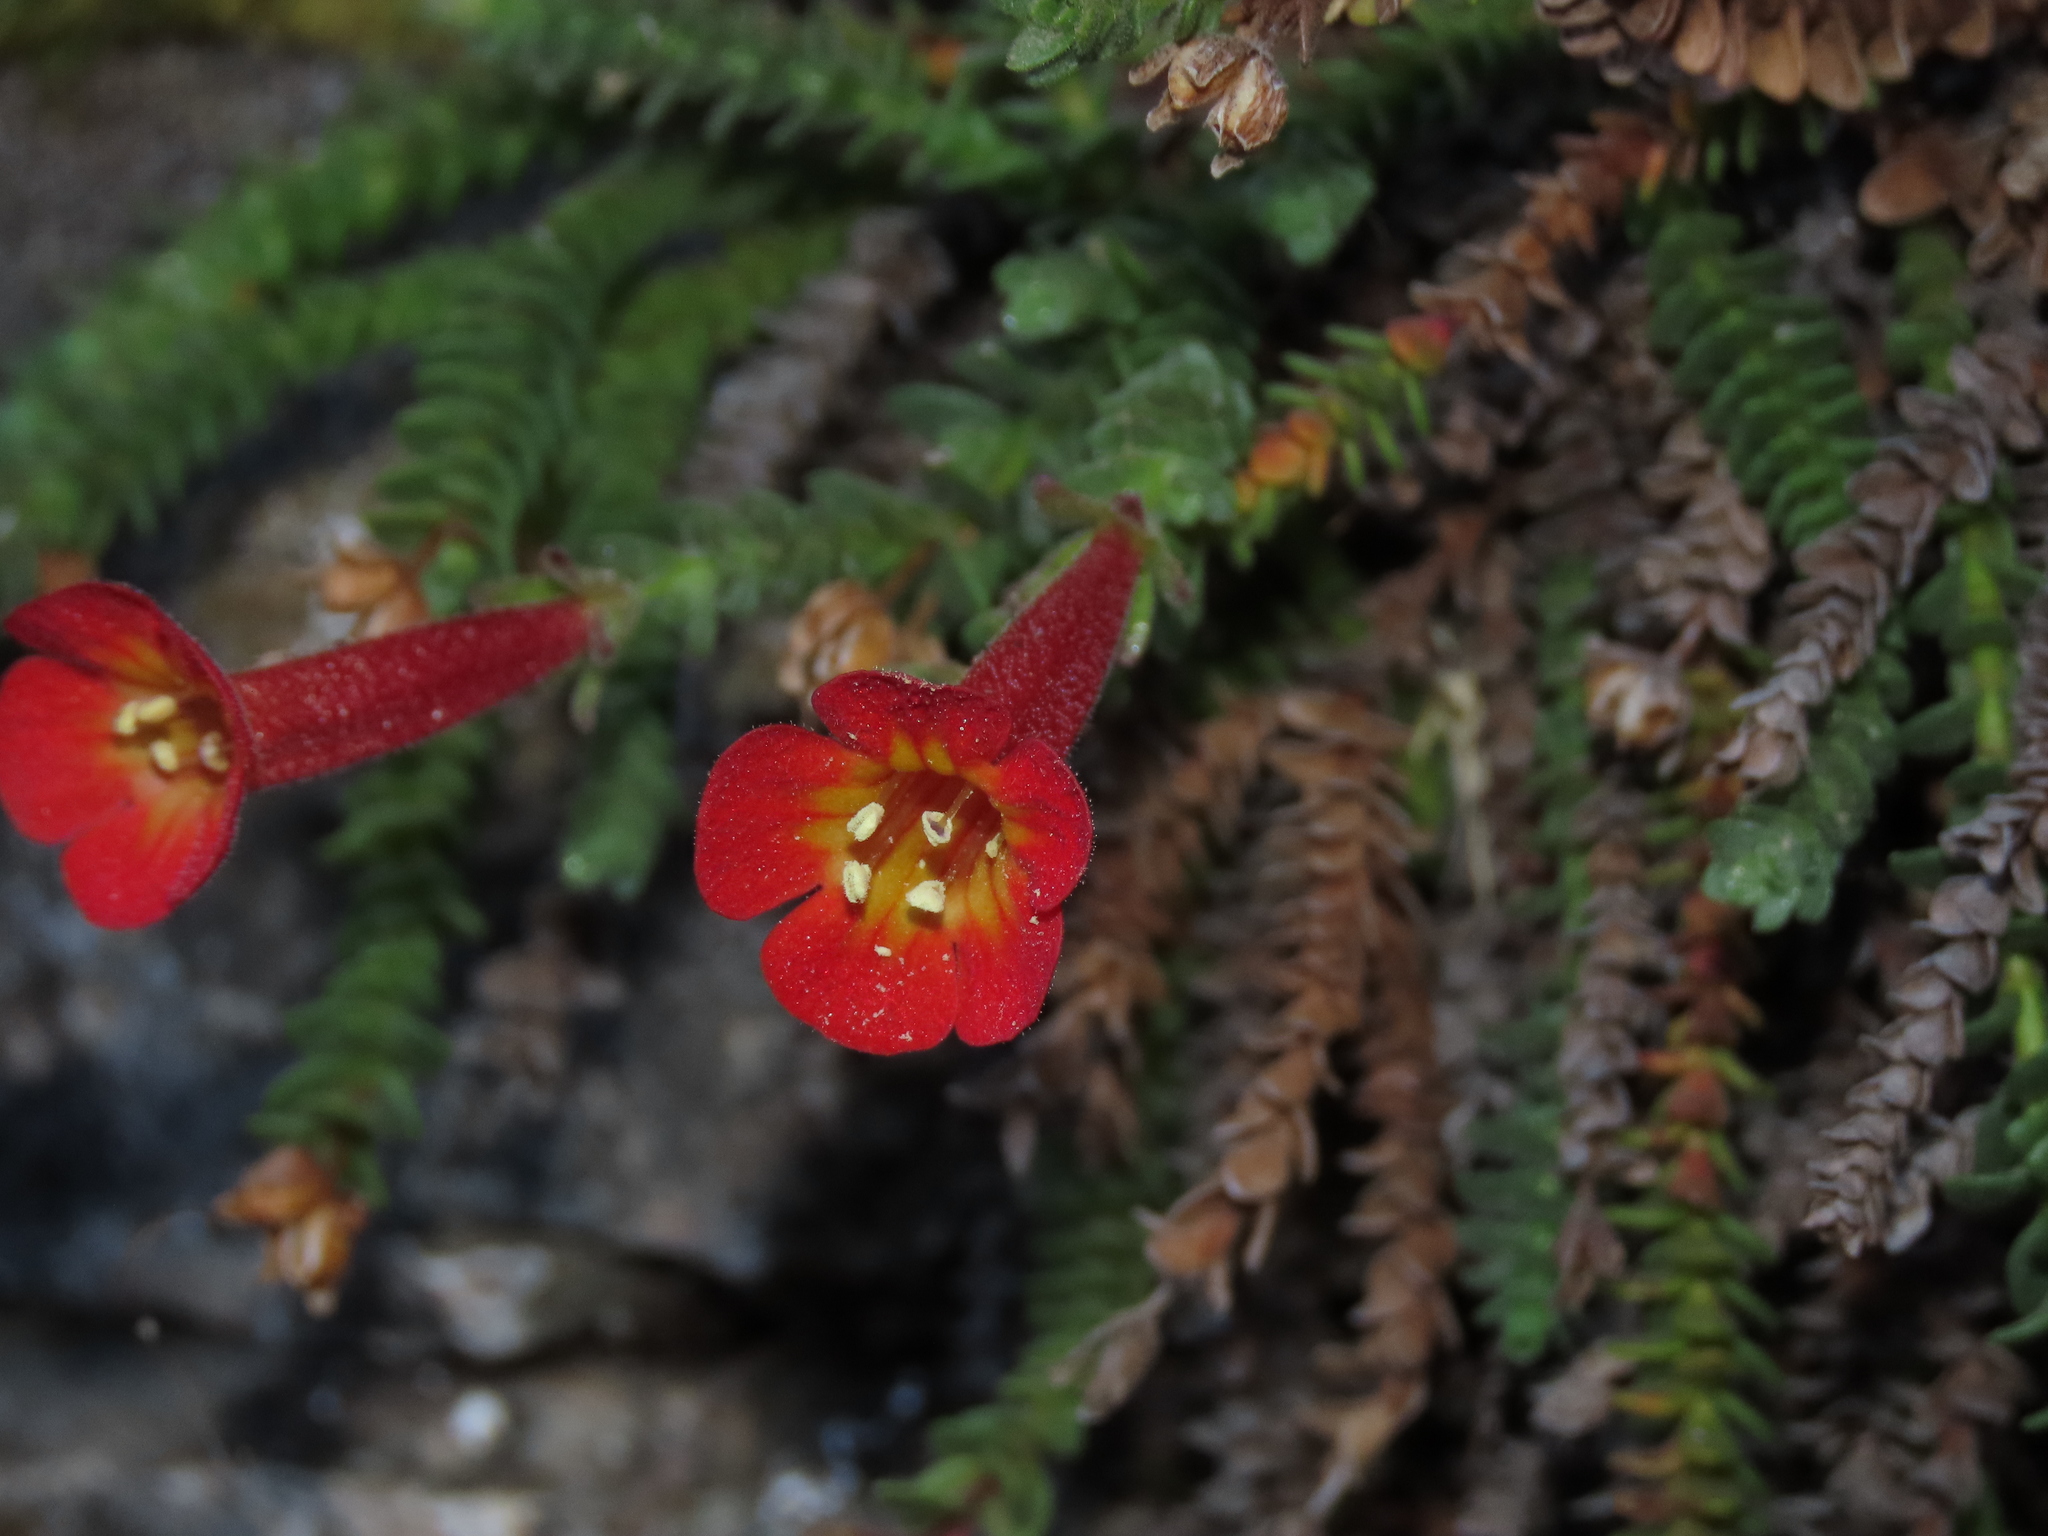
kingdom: Plantae
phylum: Tracheophyta
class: Magnoliopsida
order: Lamiales
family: Plantaginaceae
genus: Ourisia
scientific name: Ourisia polyantha
